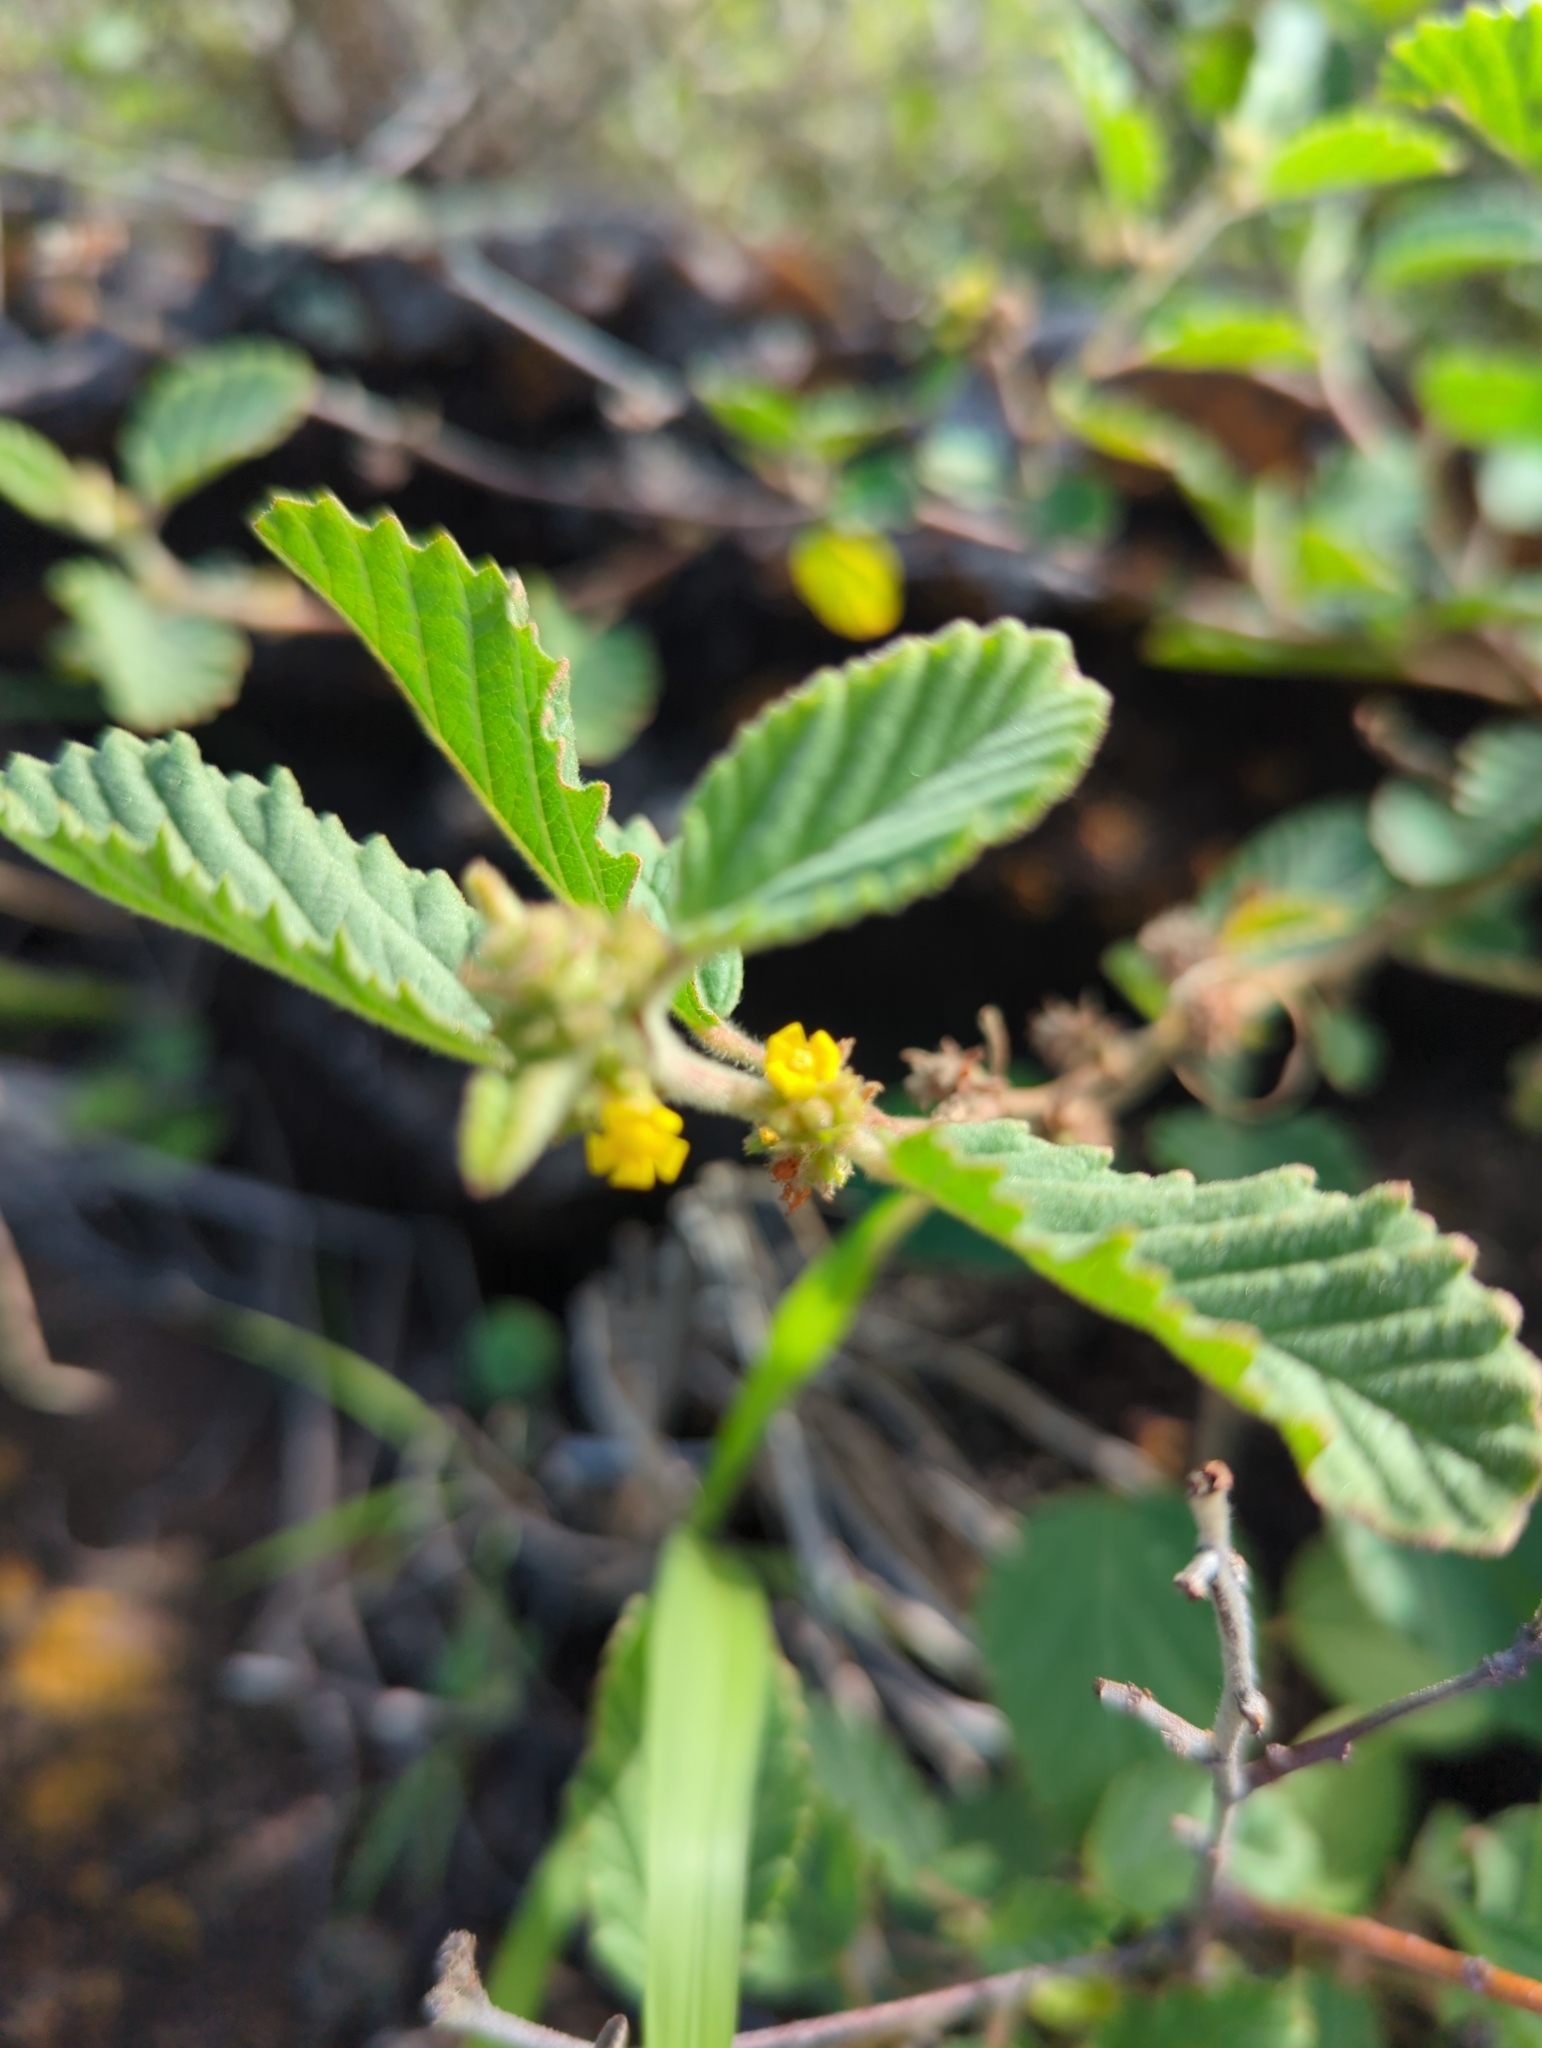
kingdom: Plantae
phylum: Tracheophyta
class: Magnoliopsida
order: Malvales
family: Malvaceae
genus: Waltheria
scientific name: Waltheria indica
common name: Leather-coat
